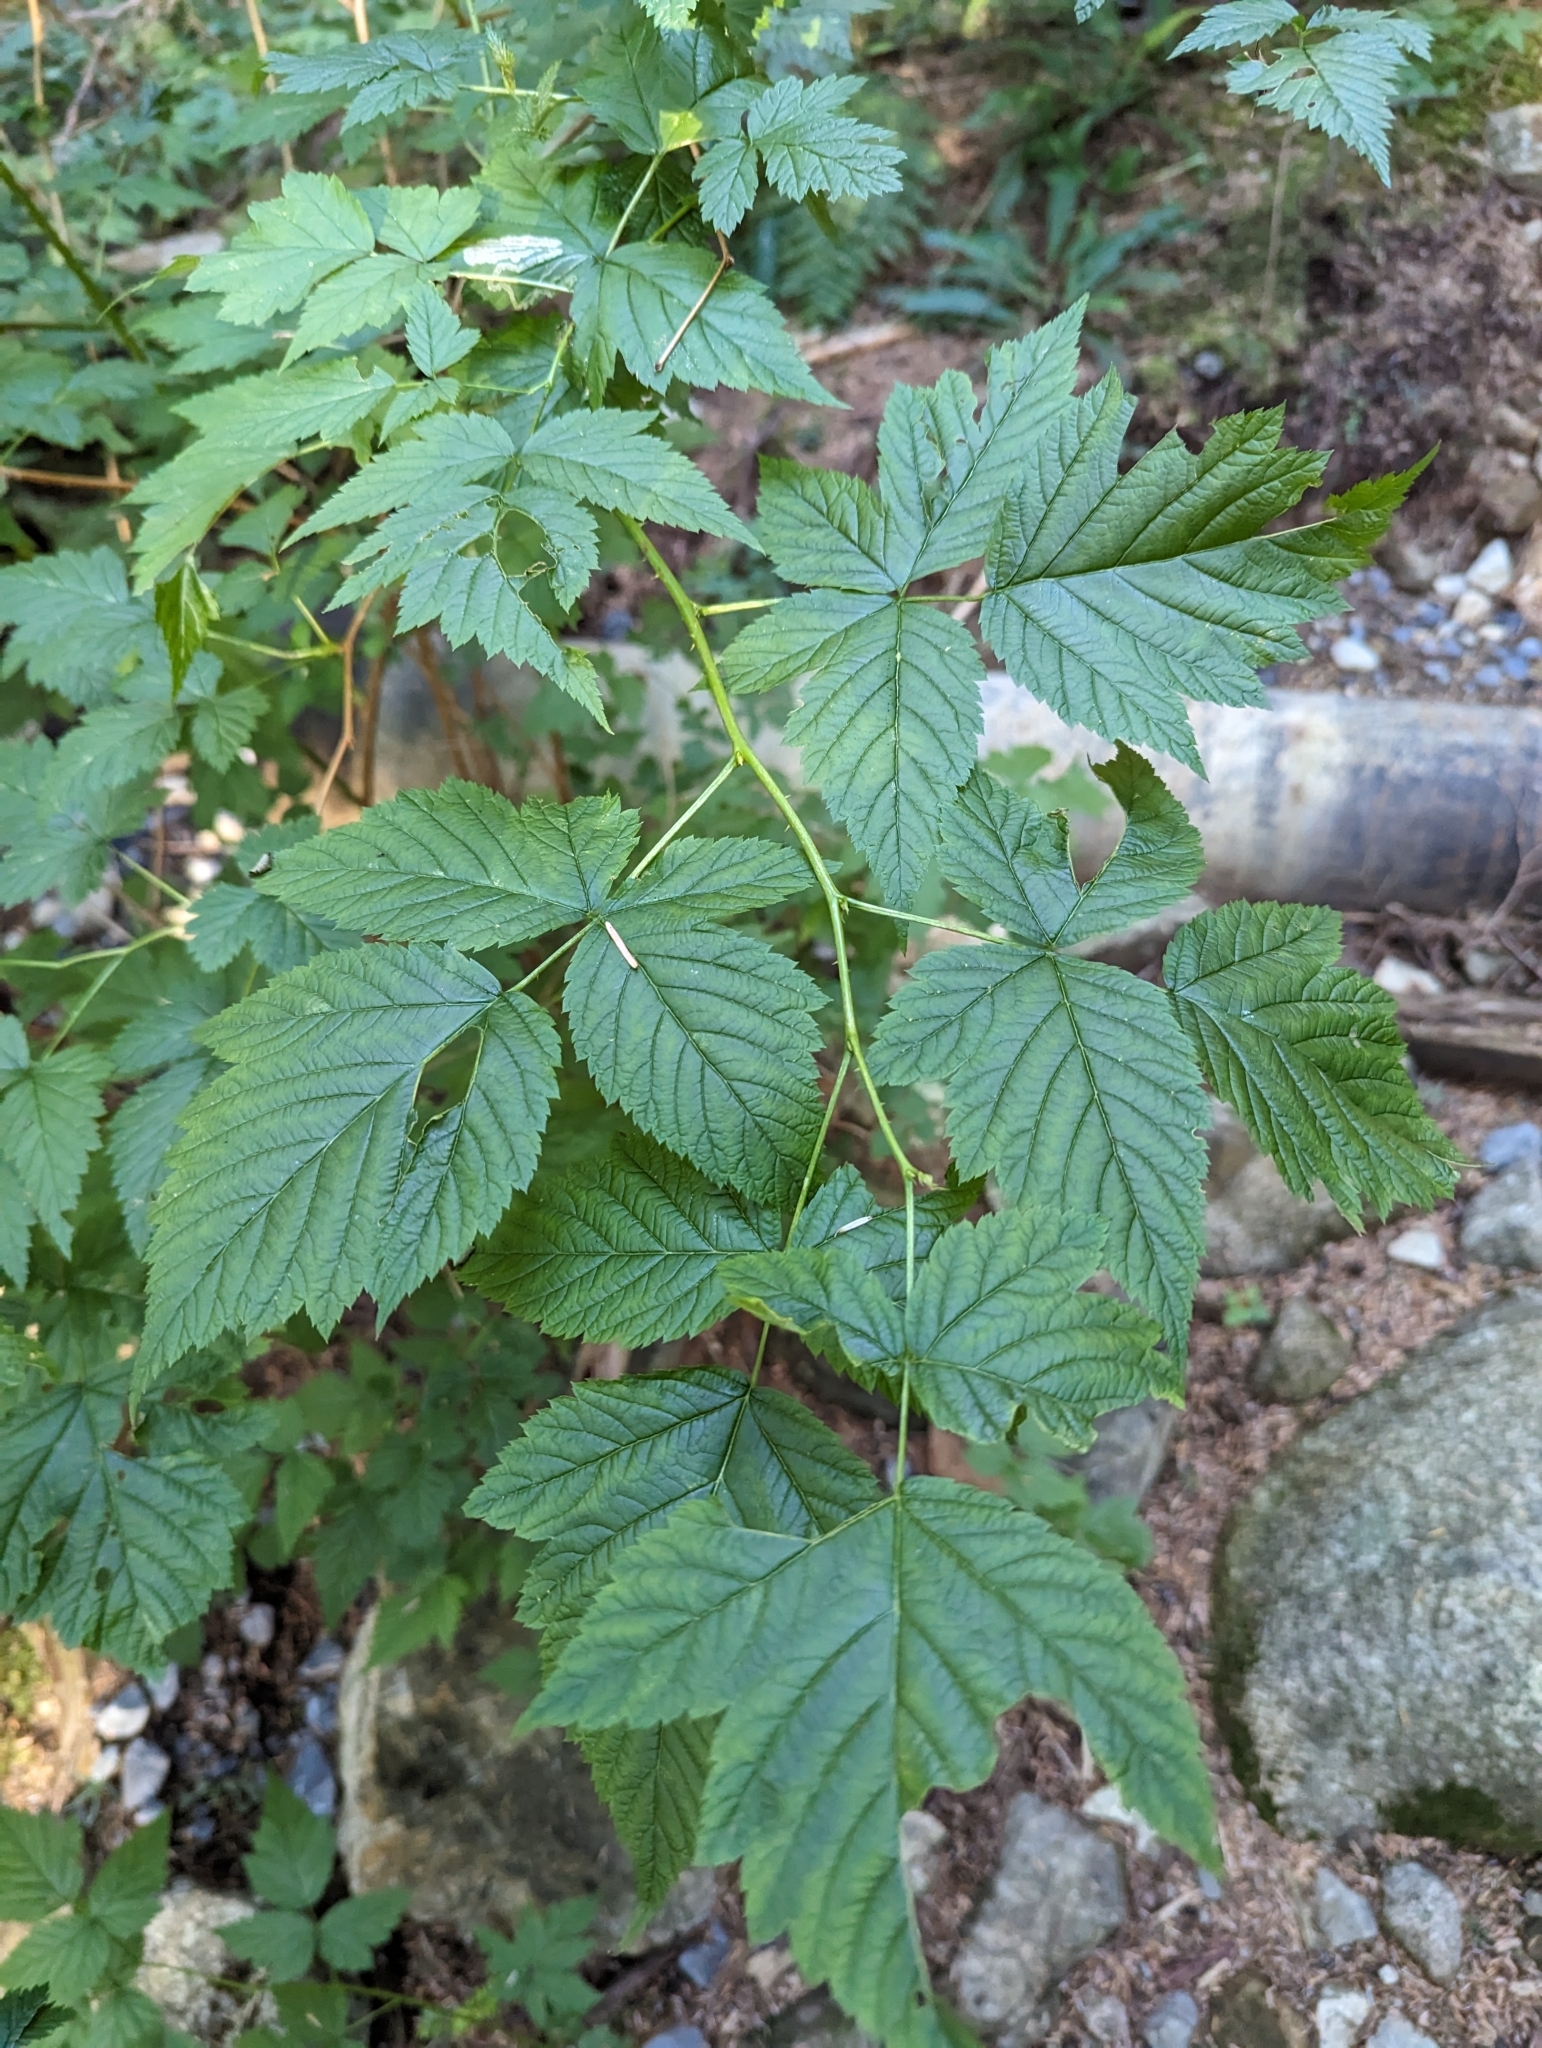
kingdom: Plantae
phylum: Tracheophyta
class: Magnoliopsida
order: Rosales
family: Rosaceae
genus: Rubus
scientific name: Rubus spectabilis
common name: Salmonberry
